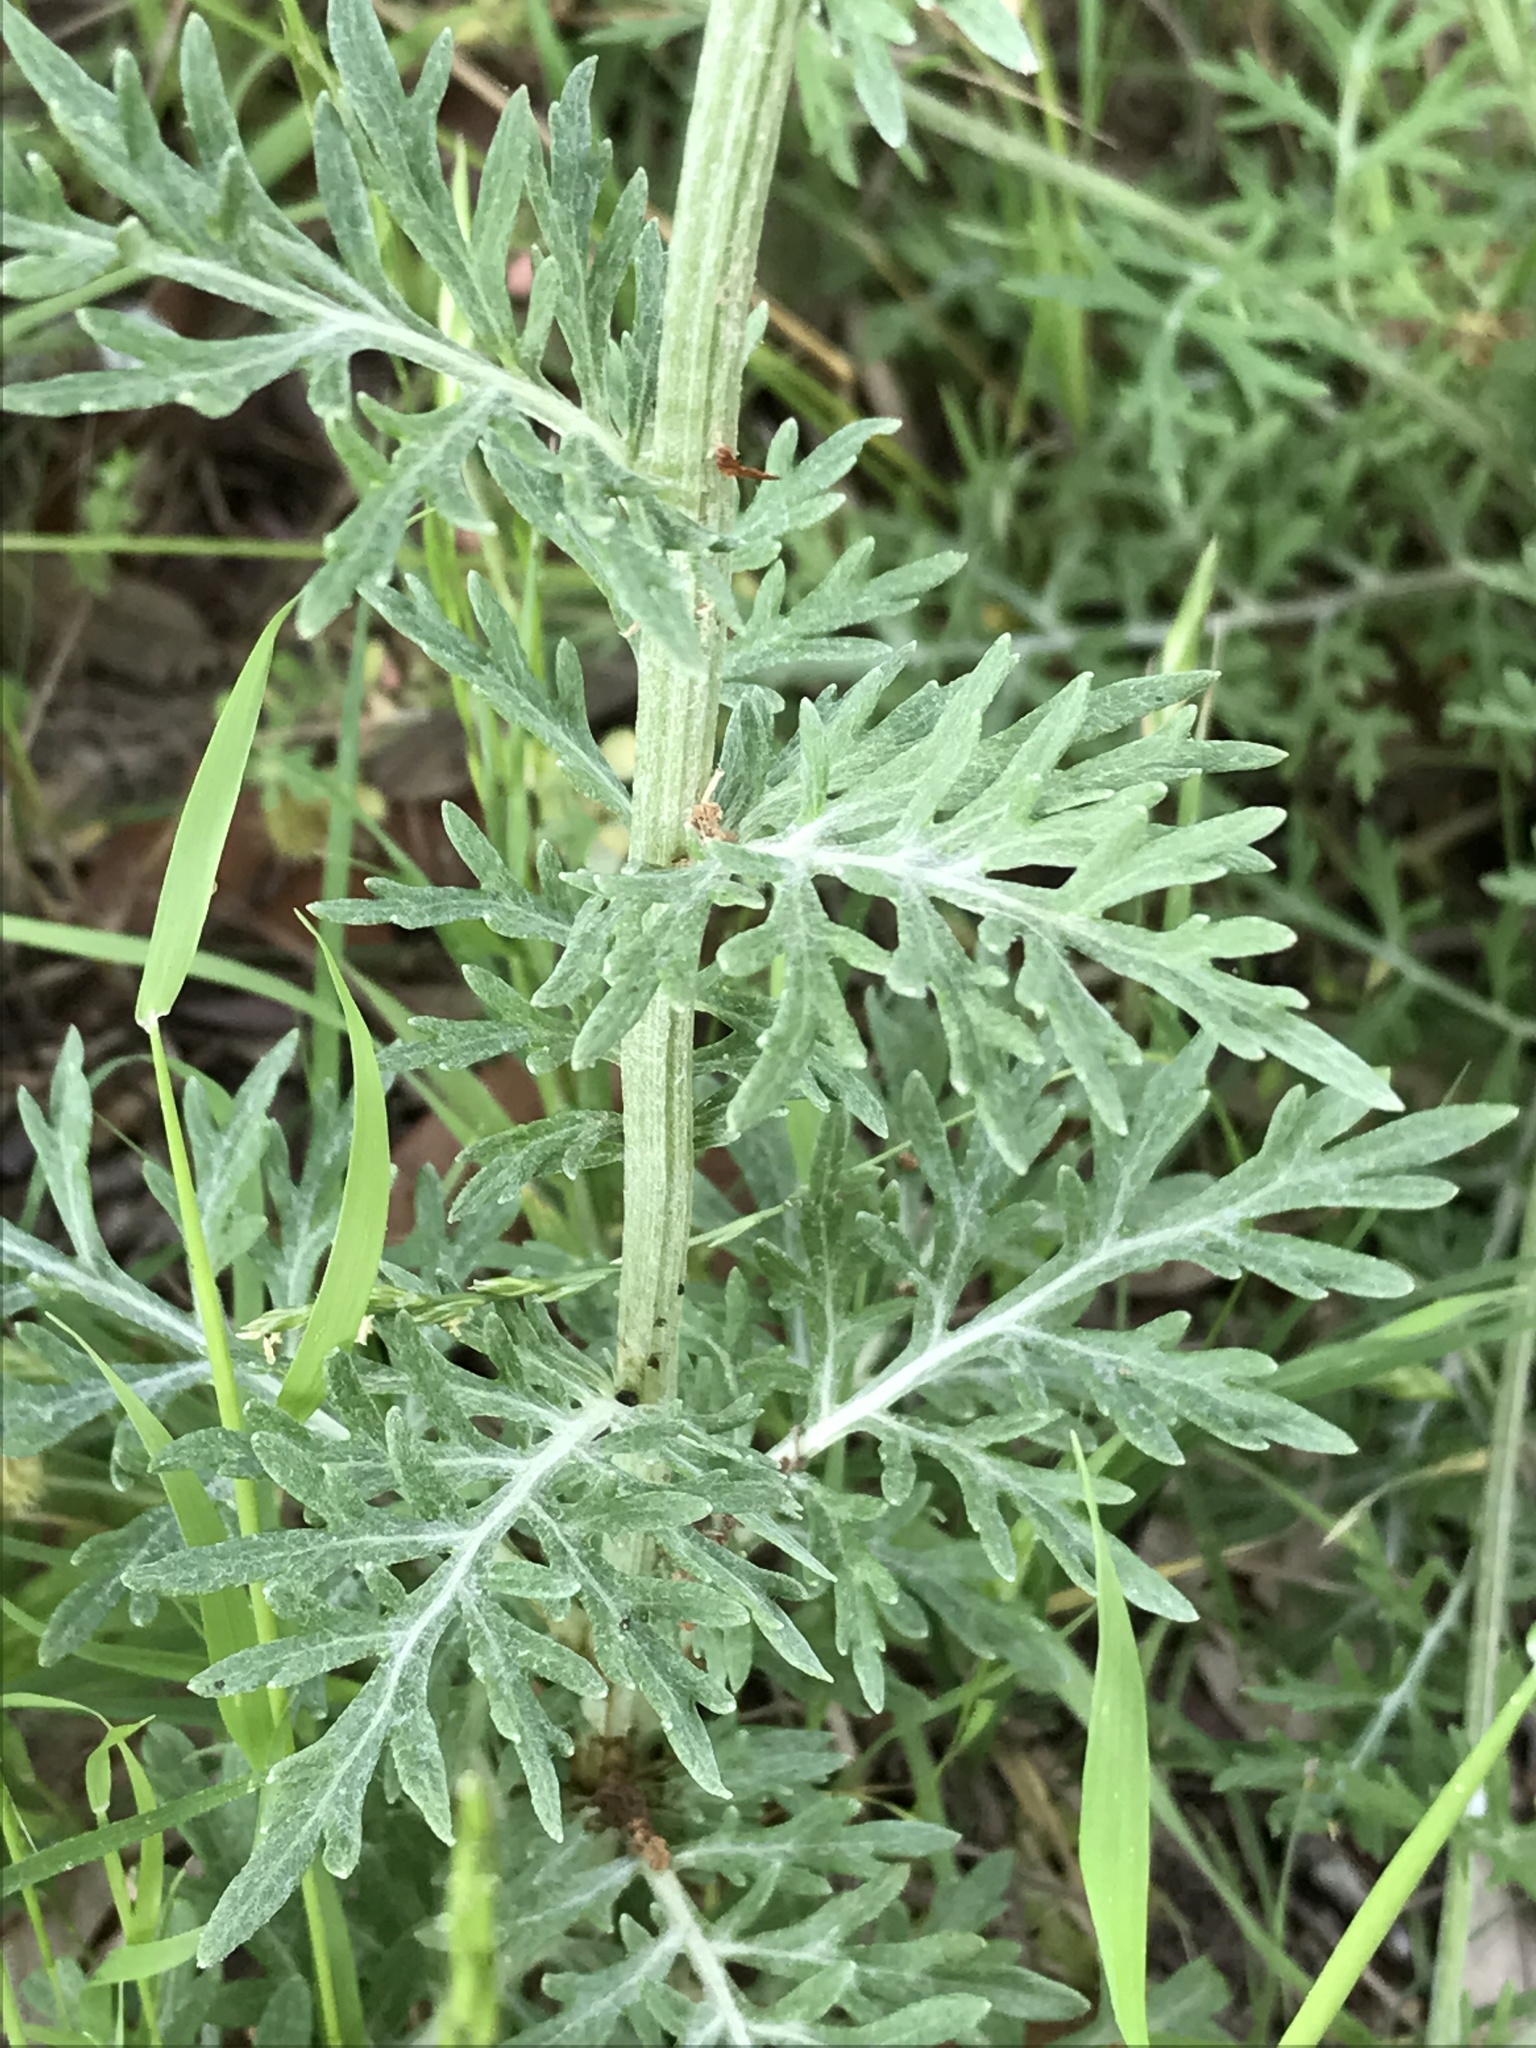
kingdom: Plantae
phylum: Tracheophyta
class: Magnoliopsida
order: Asterales
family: Asteraceae
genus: Hymenopappus
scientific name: Hymenopappus scabiosaeus
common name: Carolina woollywhite
